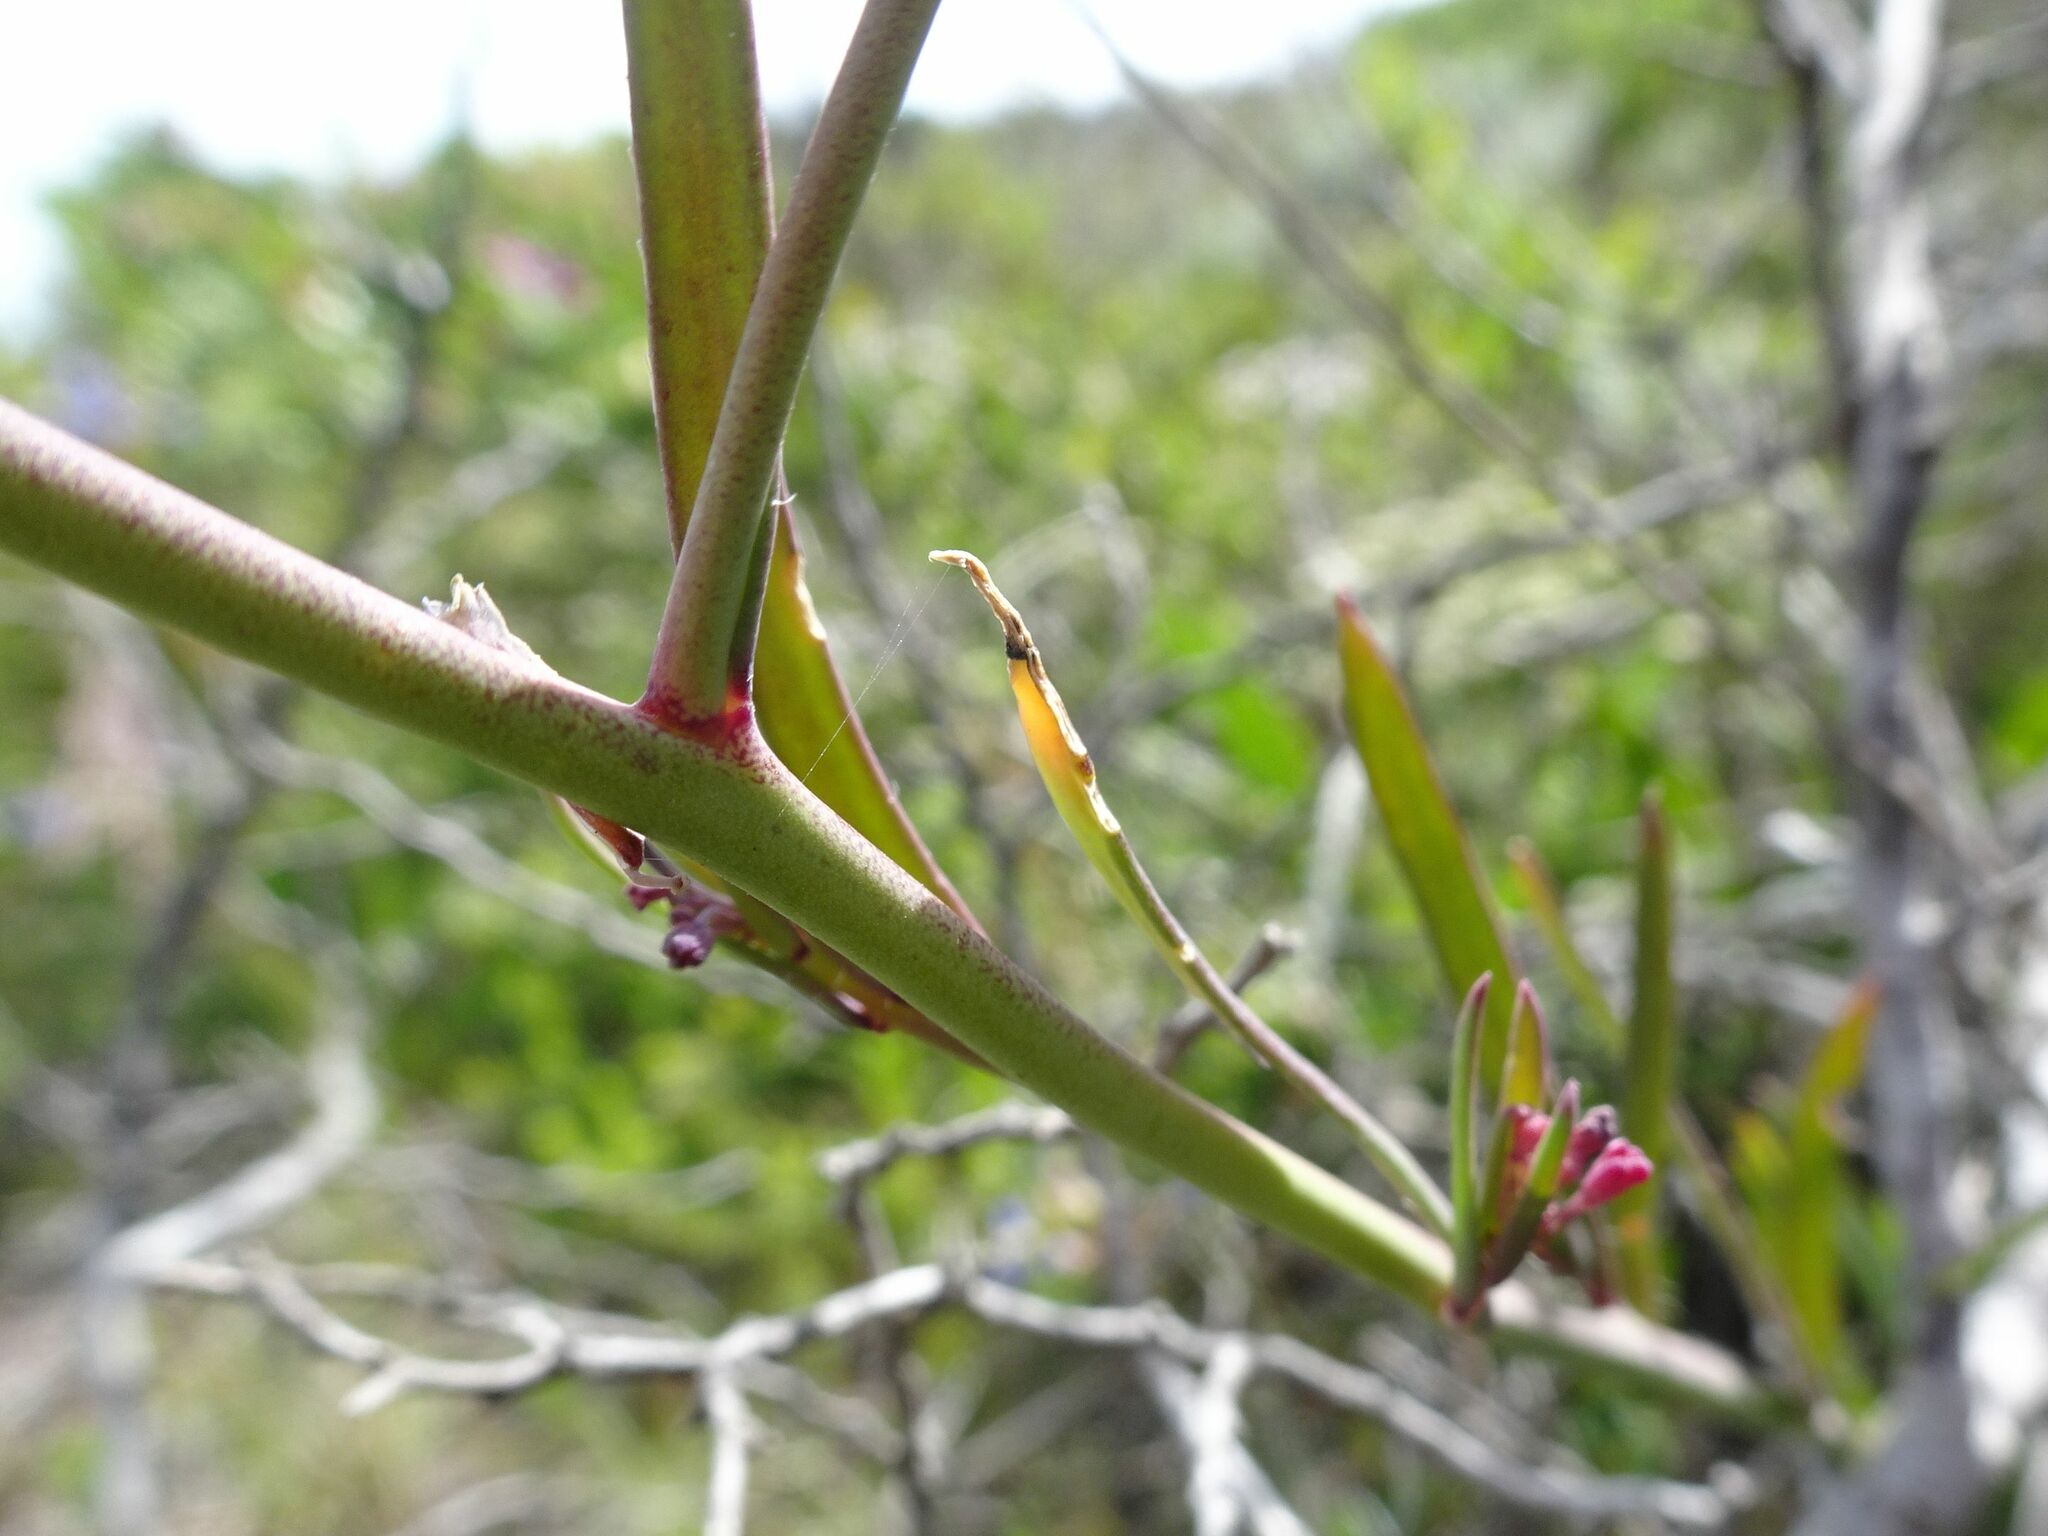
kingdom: Plantae
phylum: Tracheophyta
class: Magnoliopsida
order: Brassicales
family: Brassicaceae
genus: Heliophila
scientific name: Heliophila linearis
